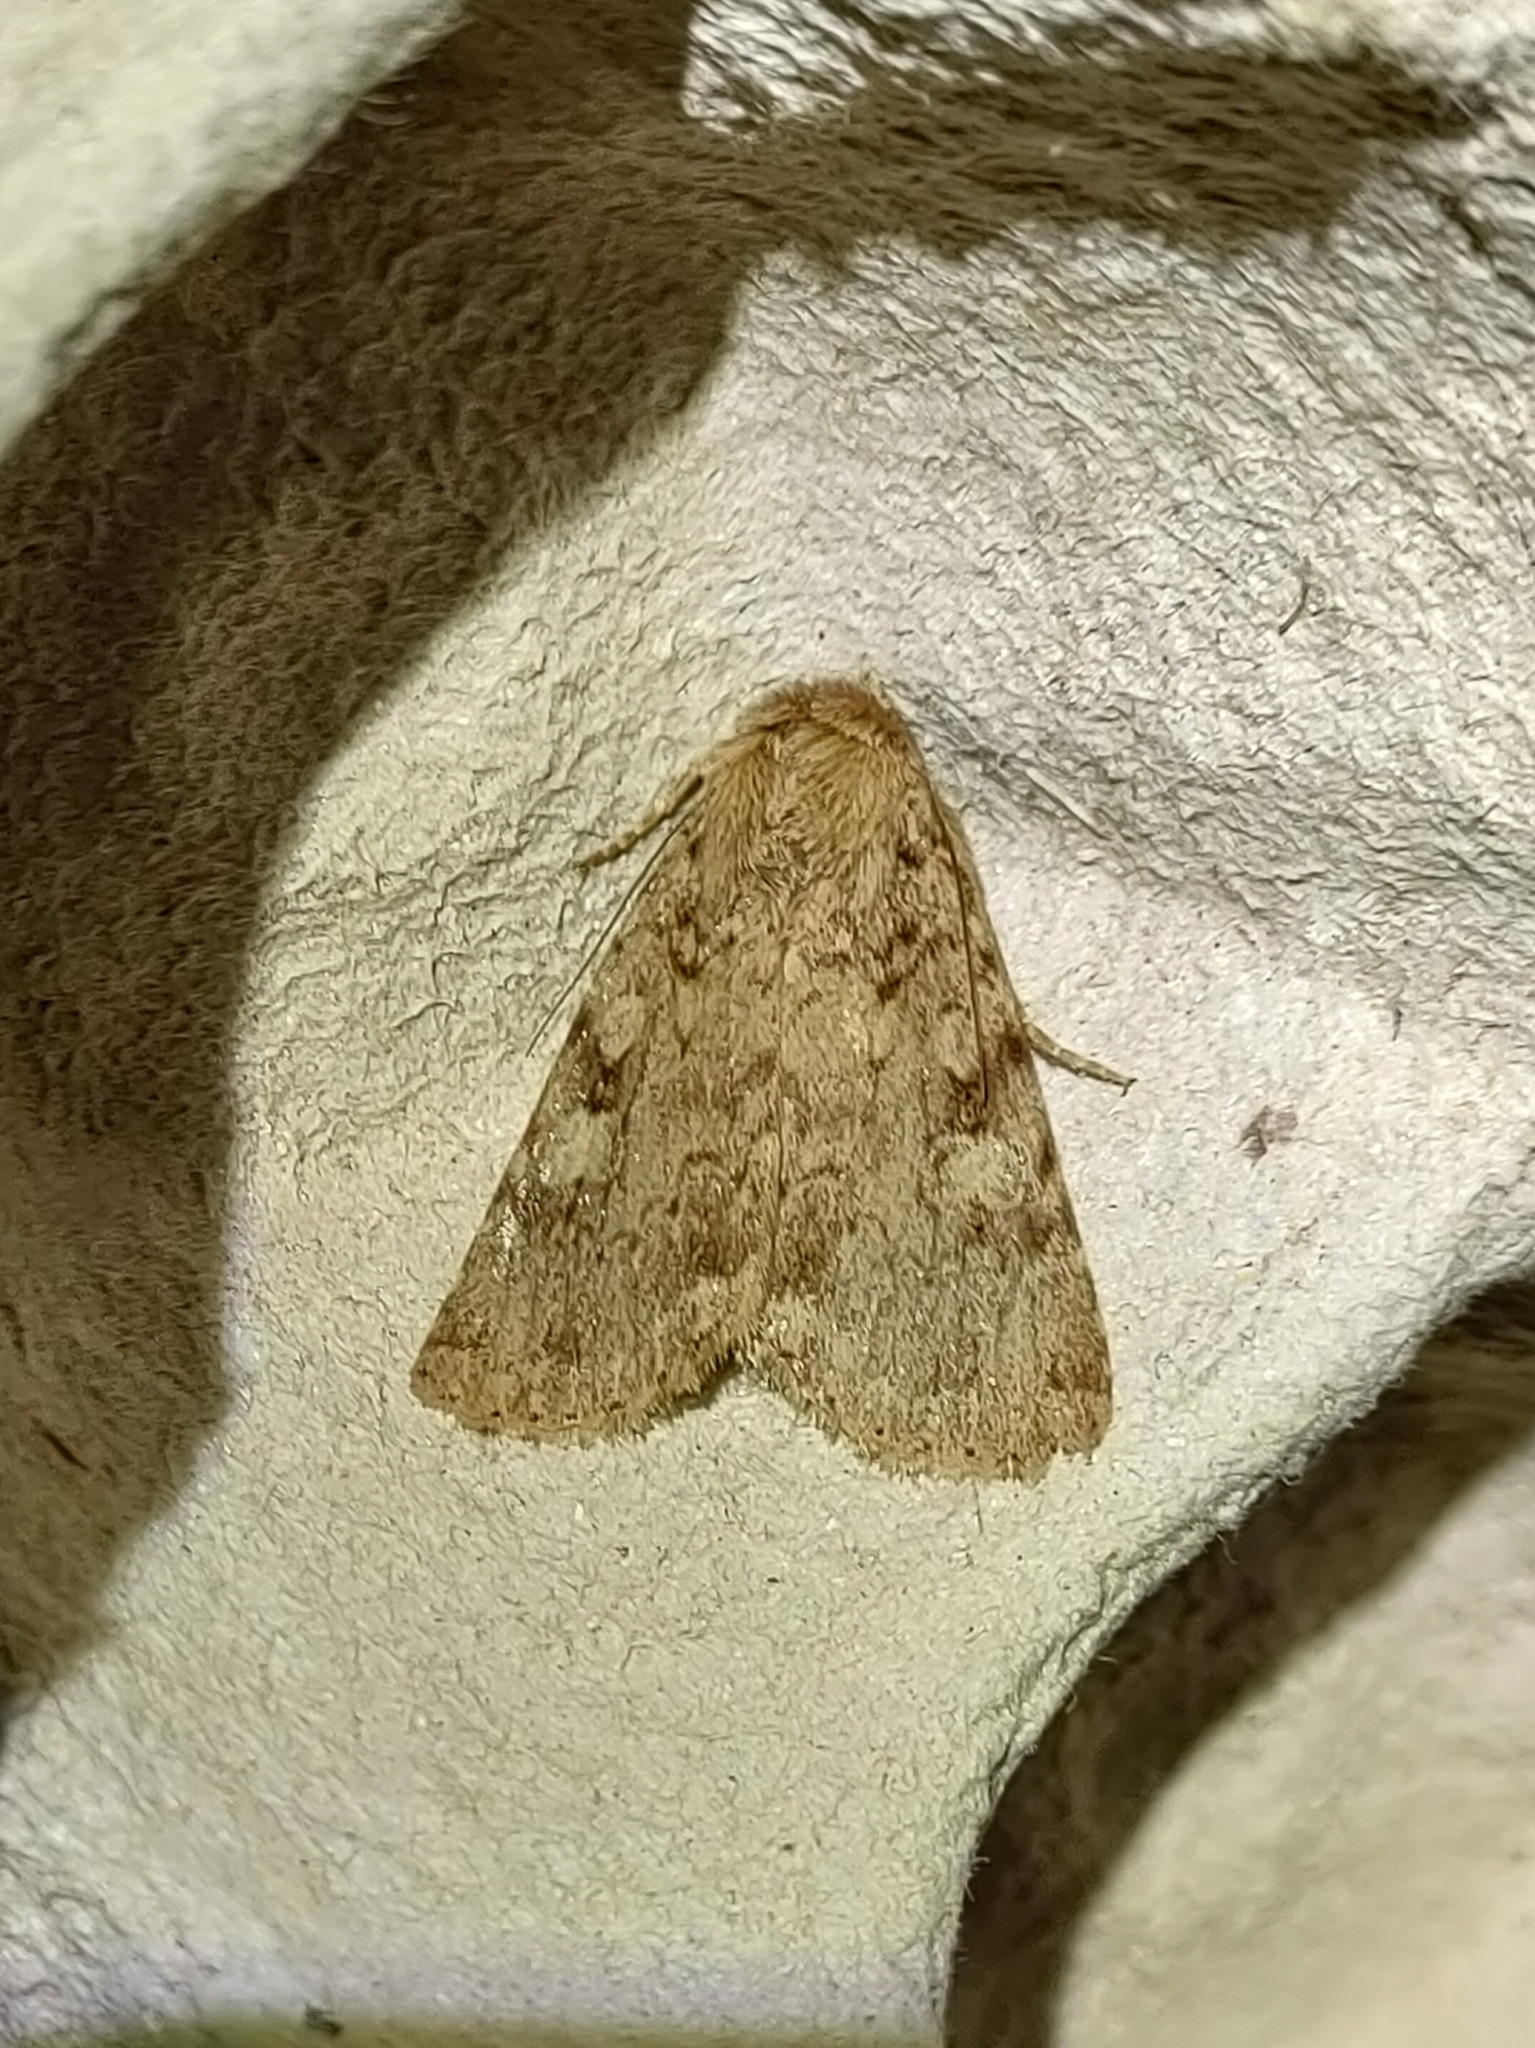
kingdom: Animalia
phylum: Arthropoda
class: Insecta
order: Lepidoptera
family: Noctuidae
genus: Amphipyra
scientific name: Amphipyra effusa
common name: Landguard ochre
